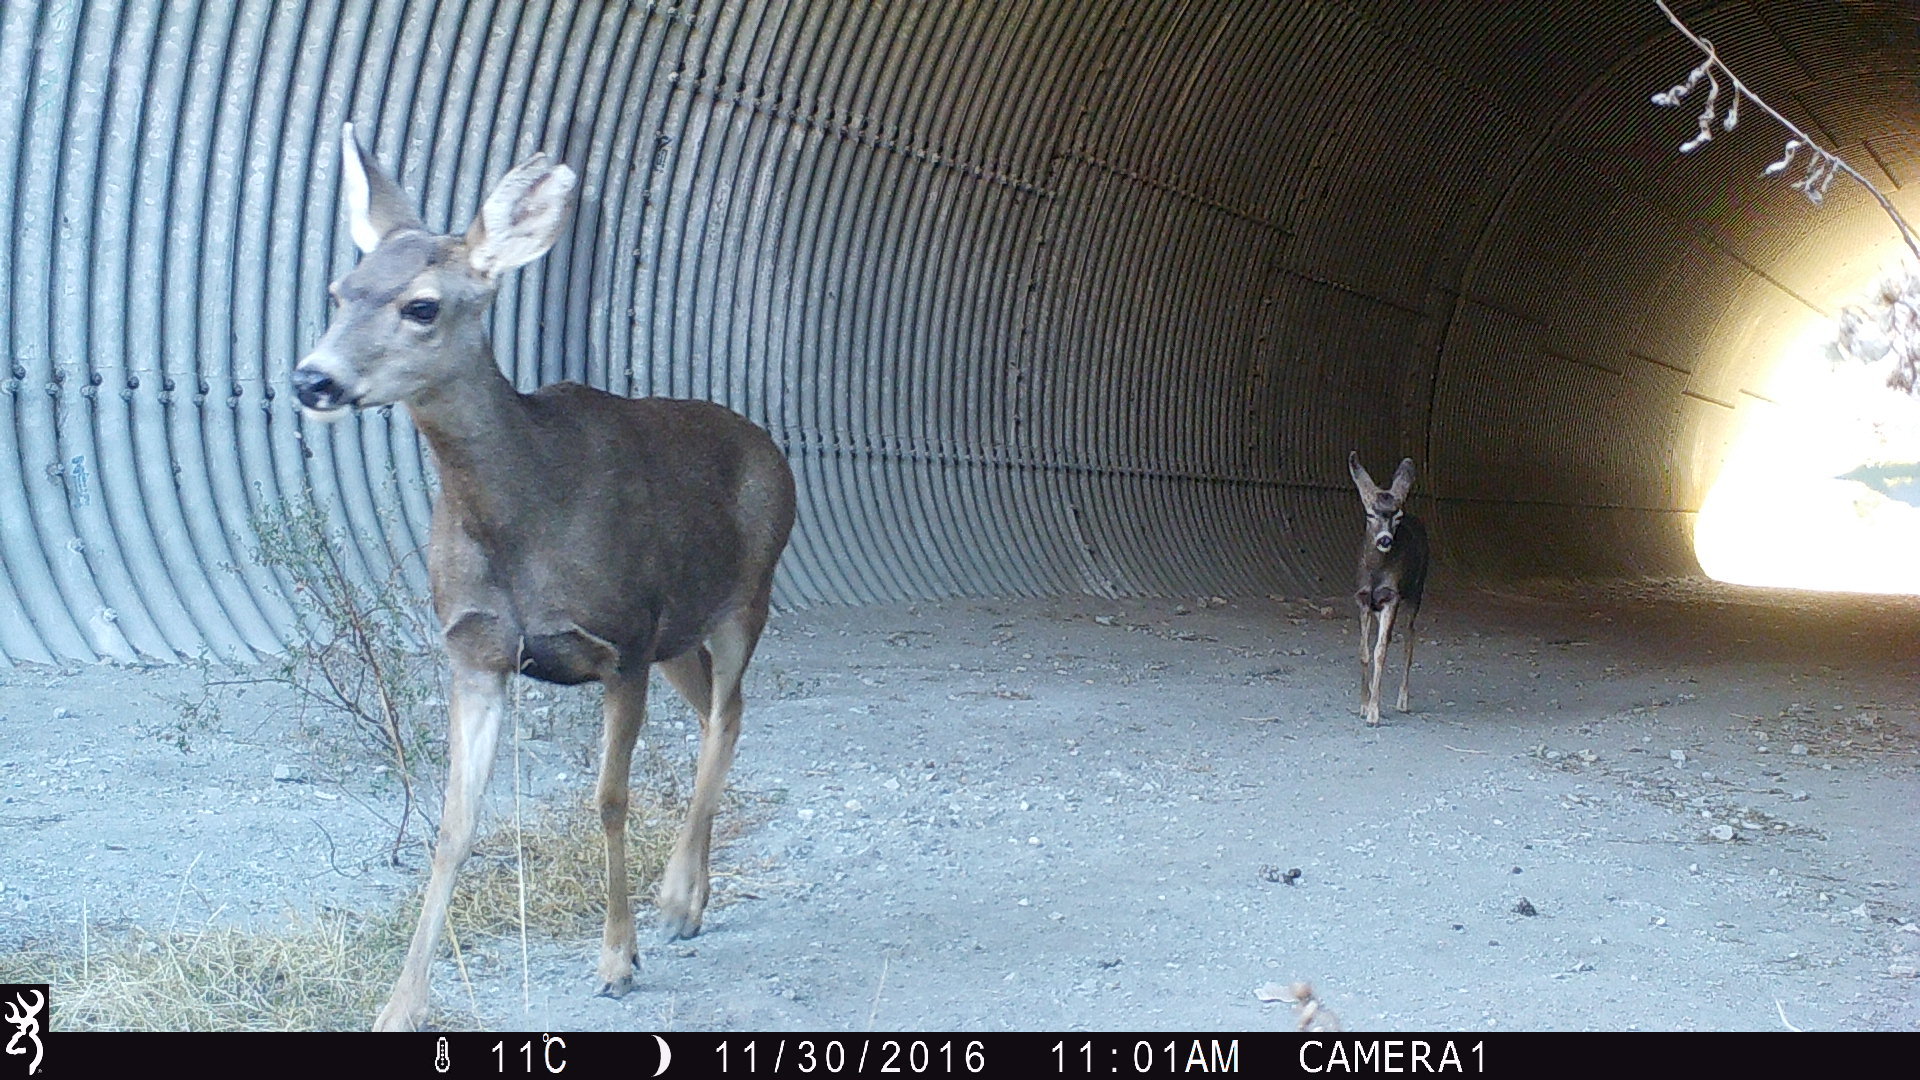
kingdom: Animalia
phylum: Chordata
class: Mammalia
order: Artiodactyla
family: Cervidae
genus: Odocoileus
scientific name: Odocoileus hemionus
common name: Mule deer
